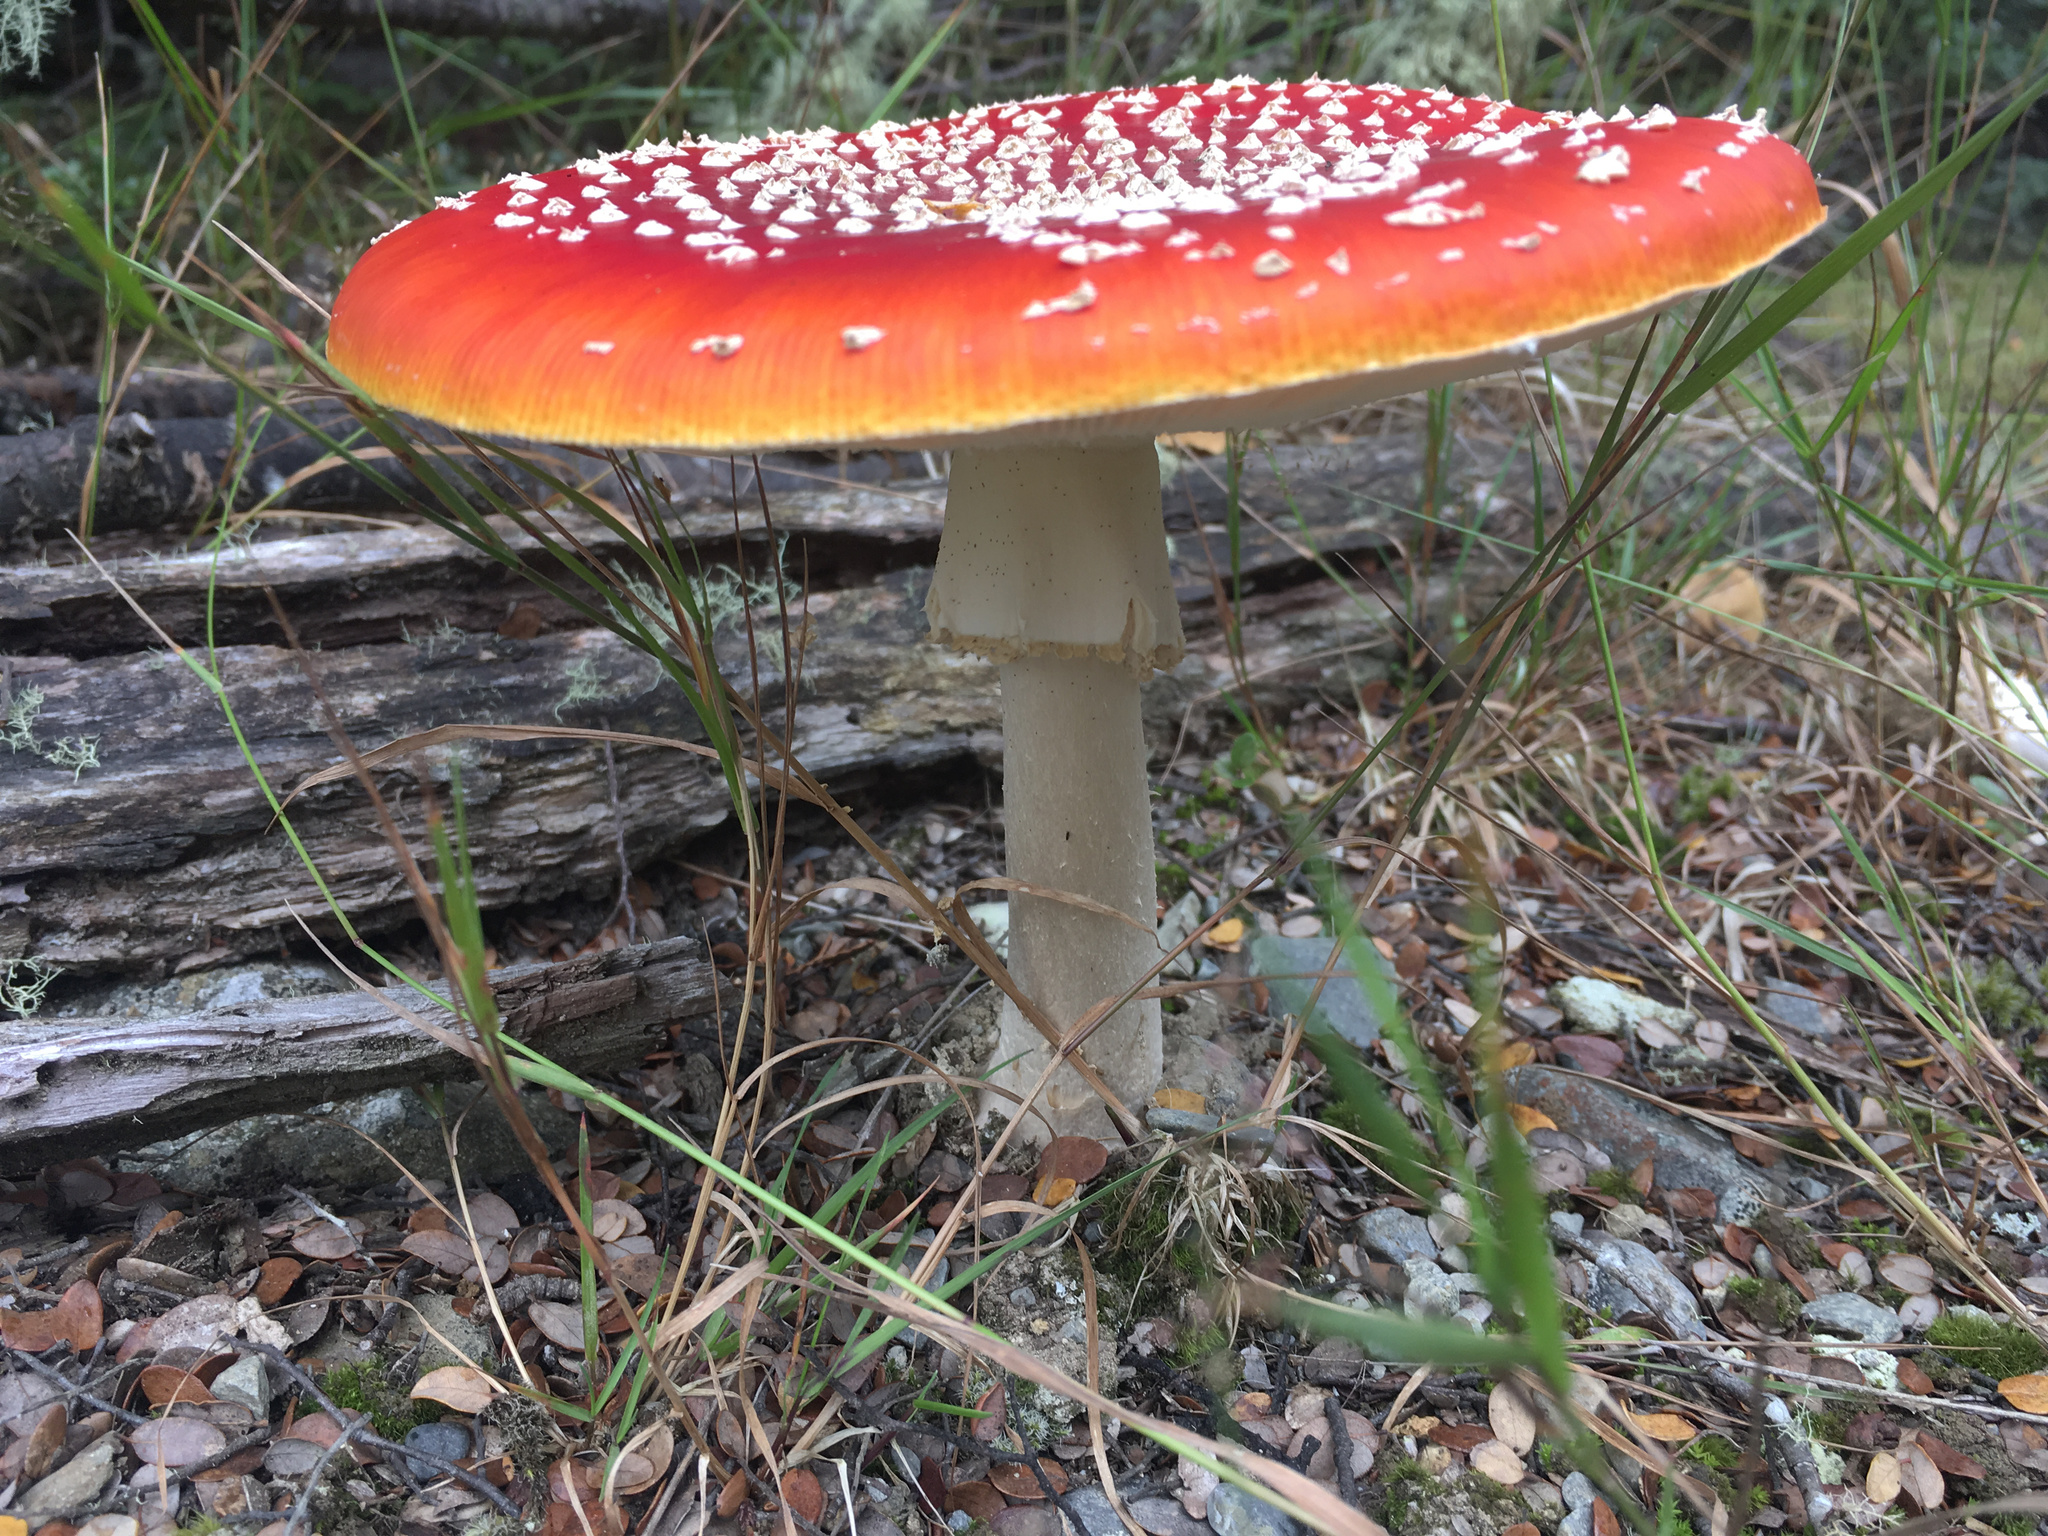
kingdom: Fungi
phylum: Basidiomycota
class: Agaricomycetes
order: Agaricales
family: Amanitaceae
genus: Amanita
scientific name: Amanita muscaria
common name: Fly agaric
